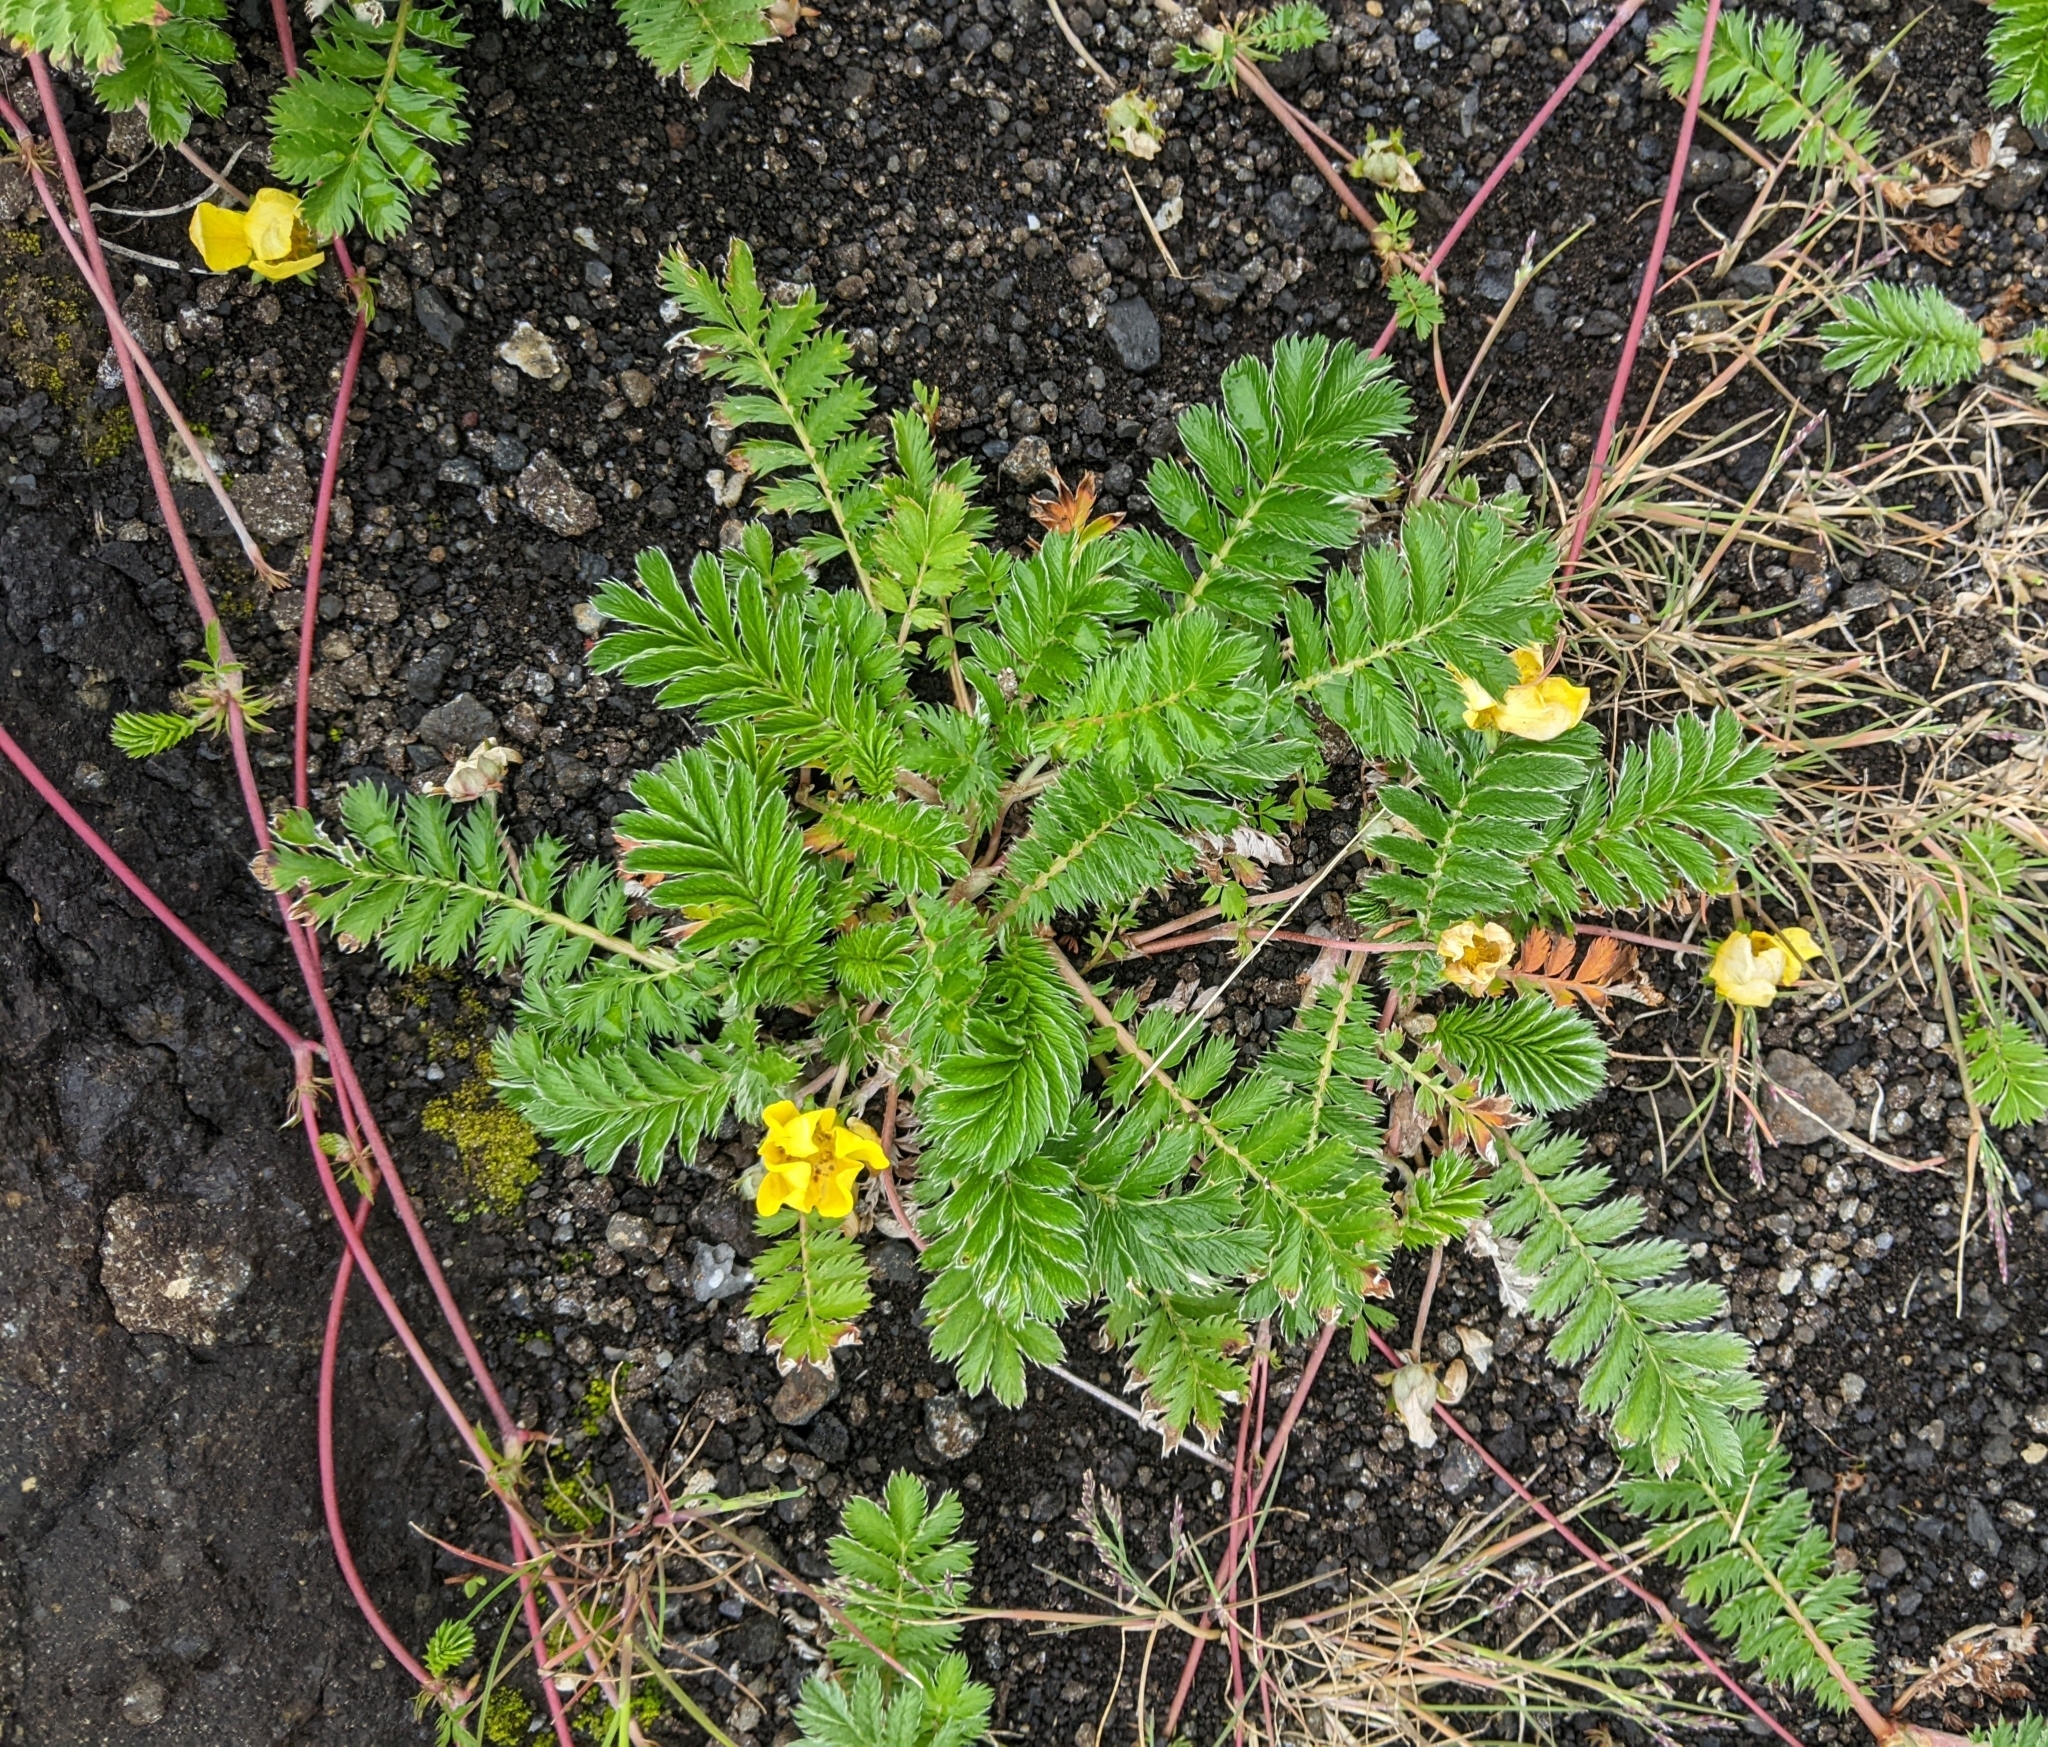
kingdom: Plantae
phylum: Tracheophyta
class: Magnoliopsida
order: Rosales
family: Rosaceae
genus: Argentina
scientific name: Argentina anserina
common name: Common silverweed
